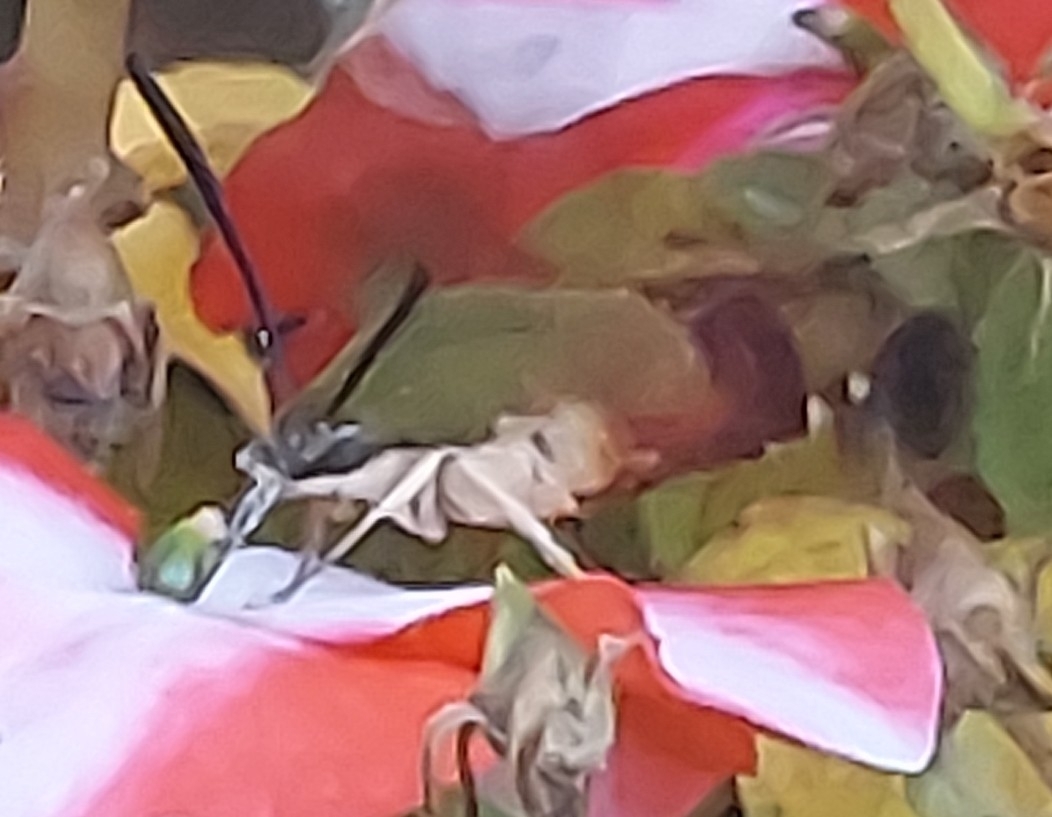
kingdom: Animalia
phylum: Arthropoda
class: Insecta
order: Lepidoptera
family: Sphingidae
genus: Hemaris
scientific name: Hemaris thysbe
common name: Common clear-wing
